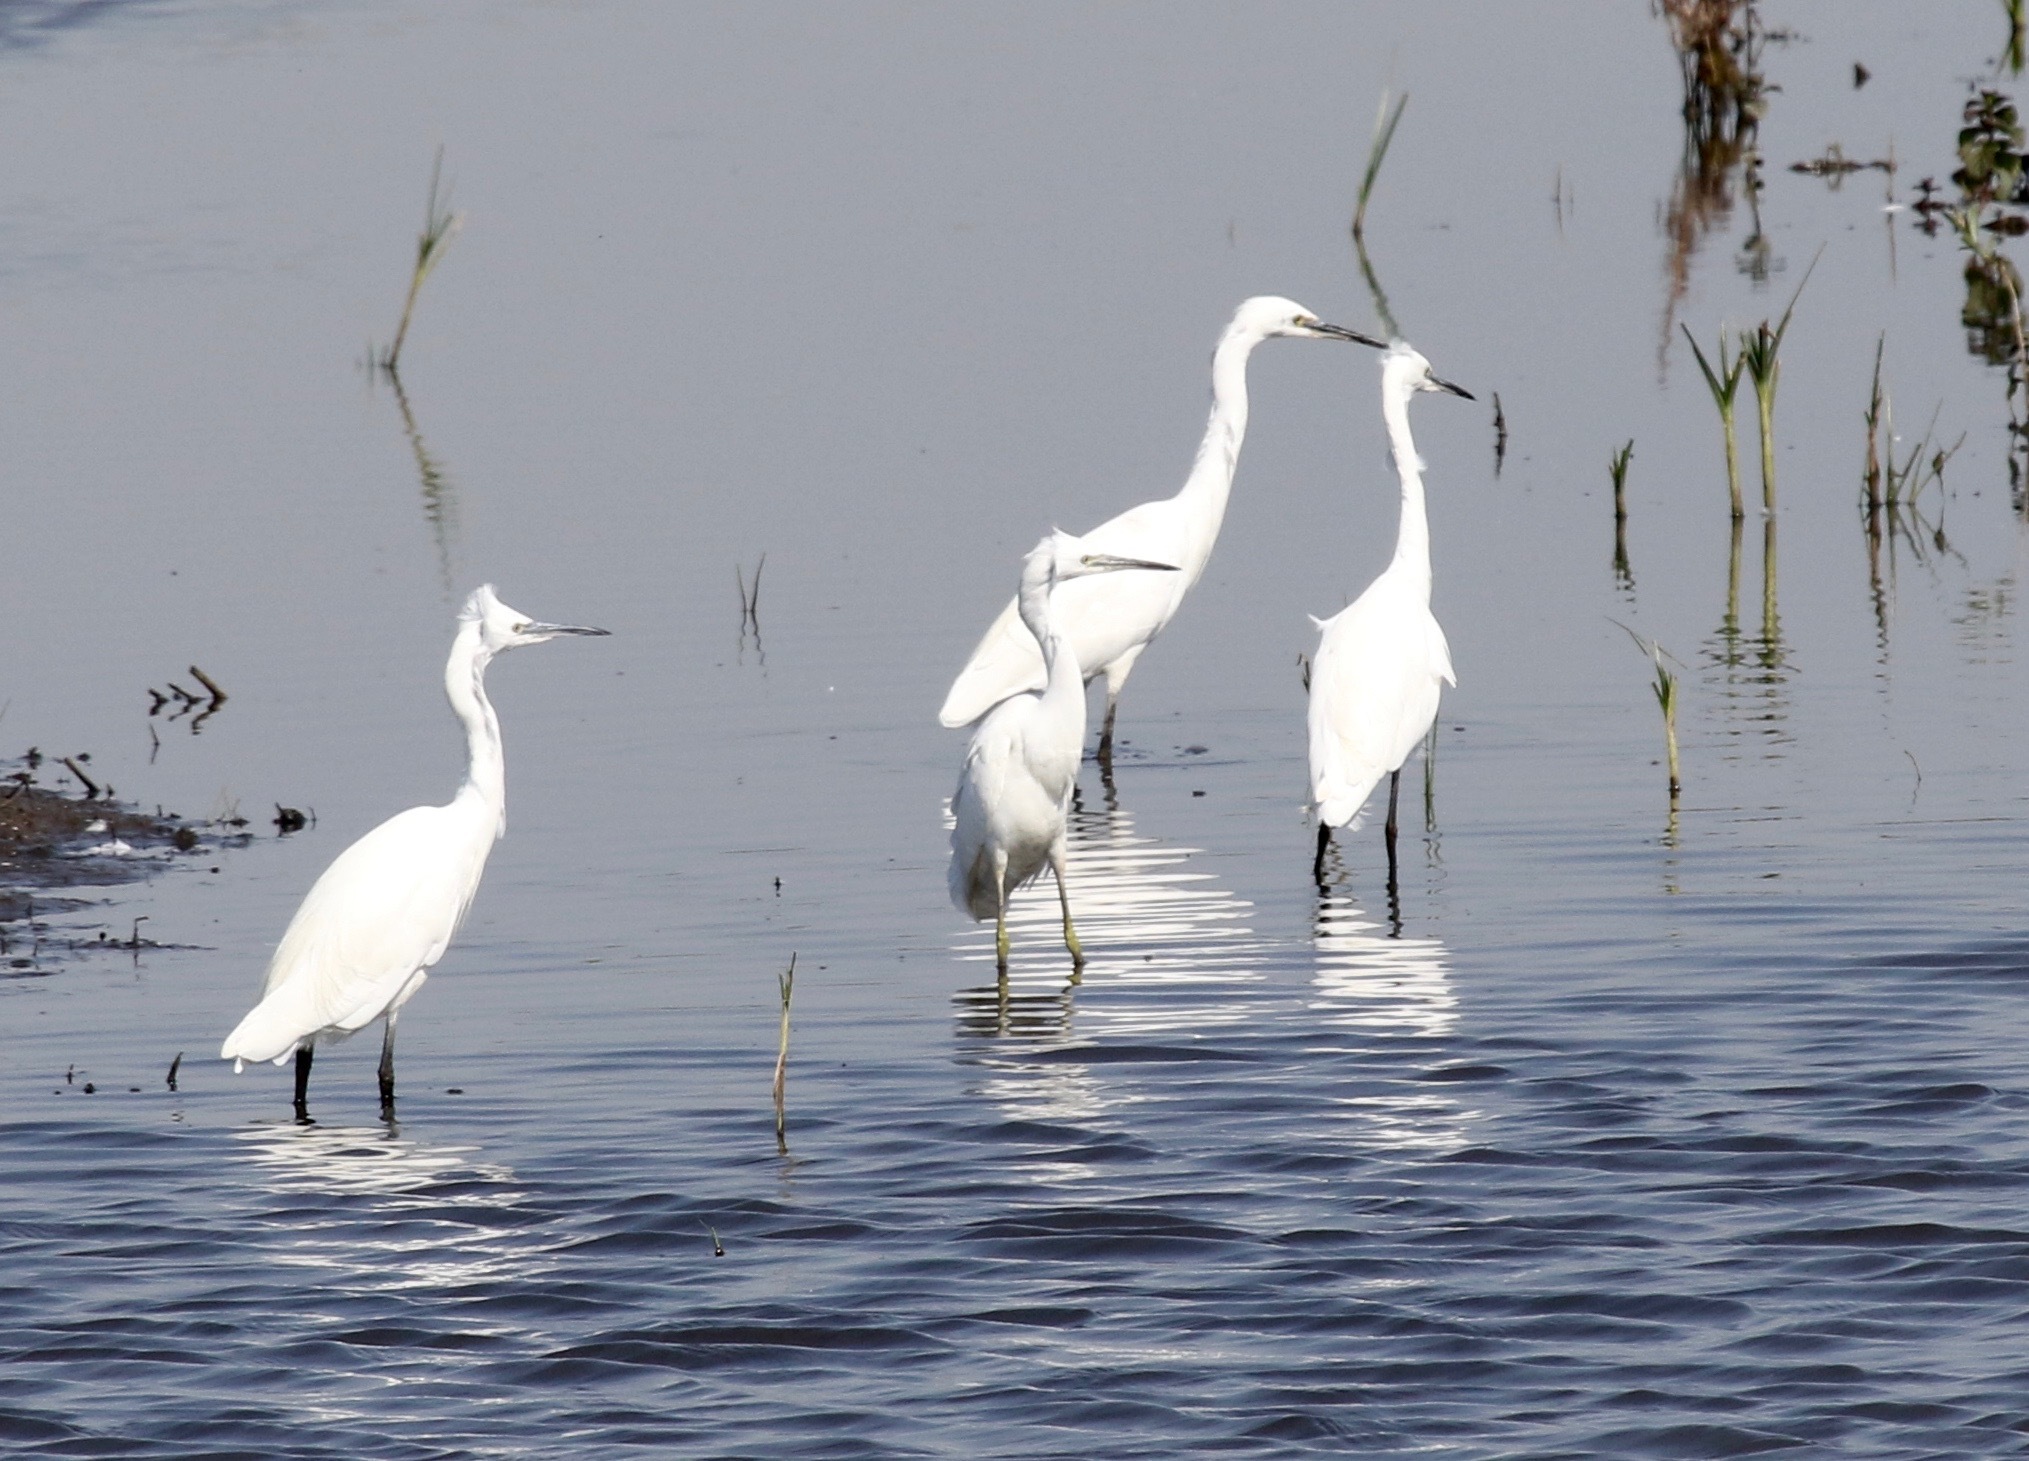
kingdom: Animalia
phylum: Chordata
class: Aves
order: Pelecaniformes
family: Ardeidae
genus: Egretta
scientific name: Egretta garzetta
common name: Little egret
